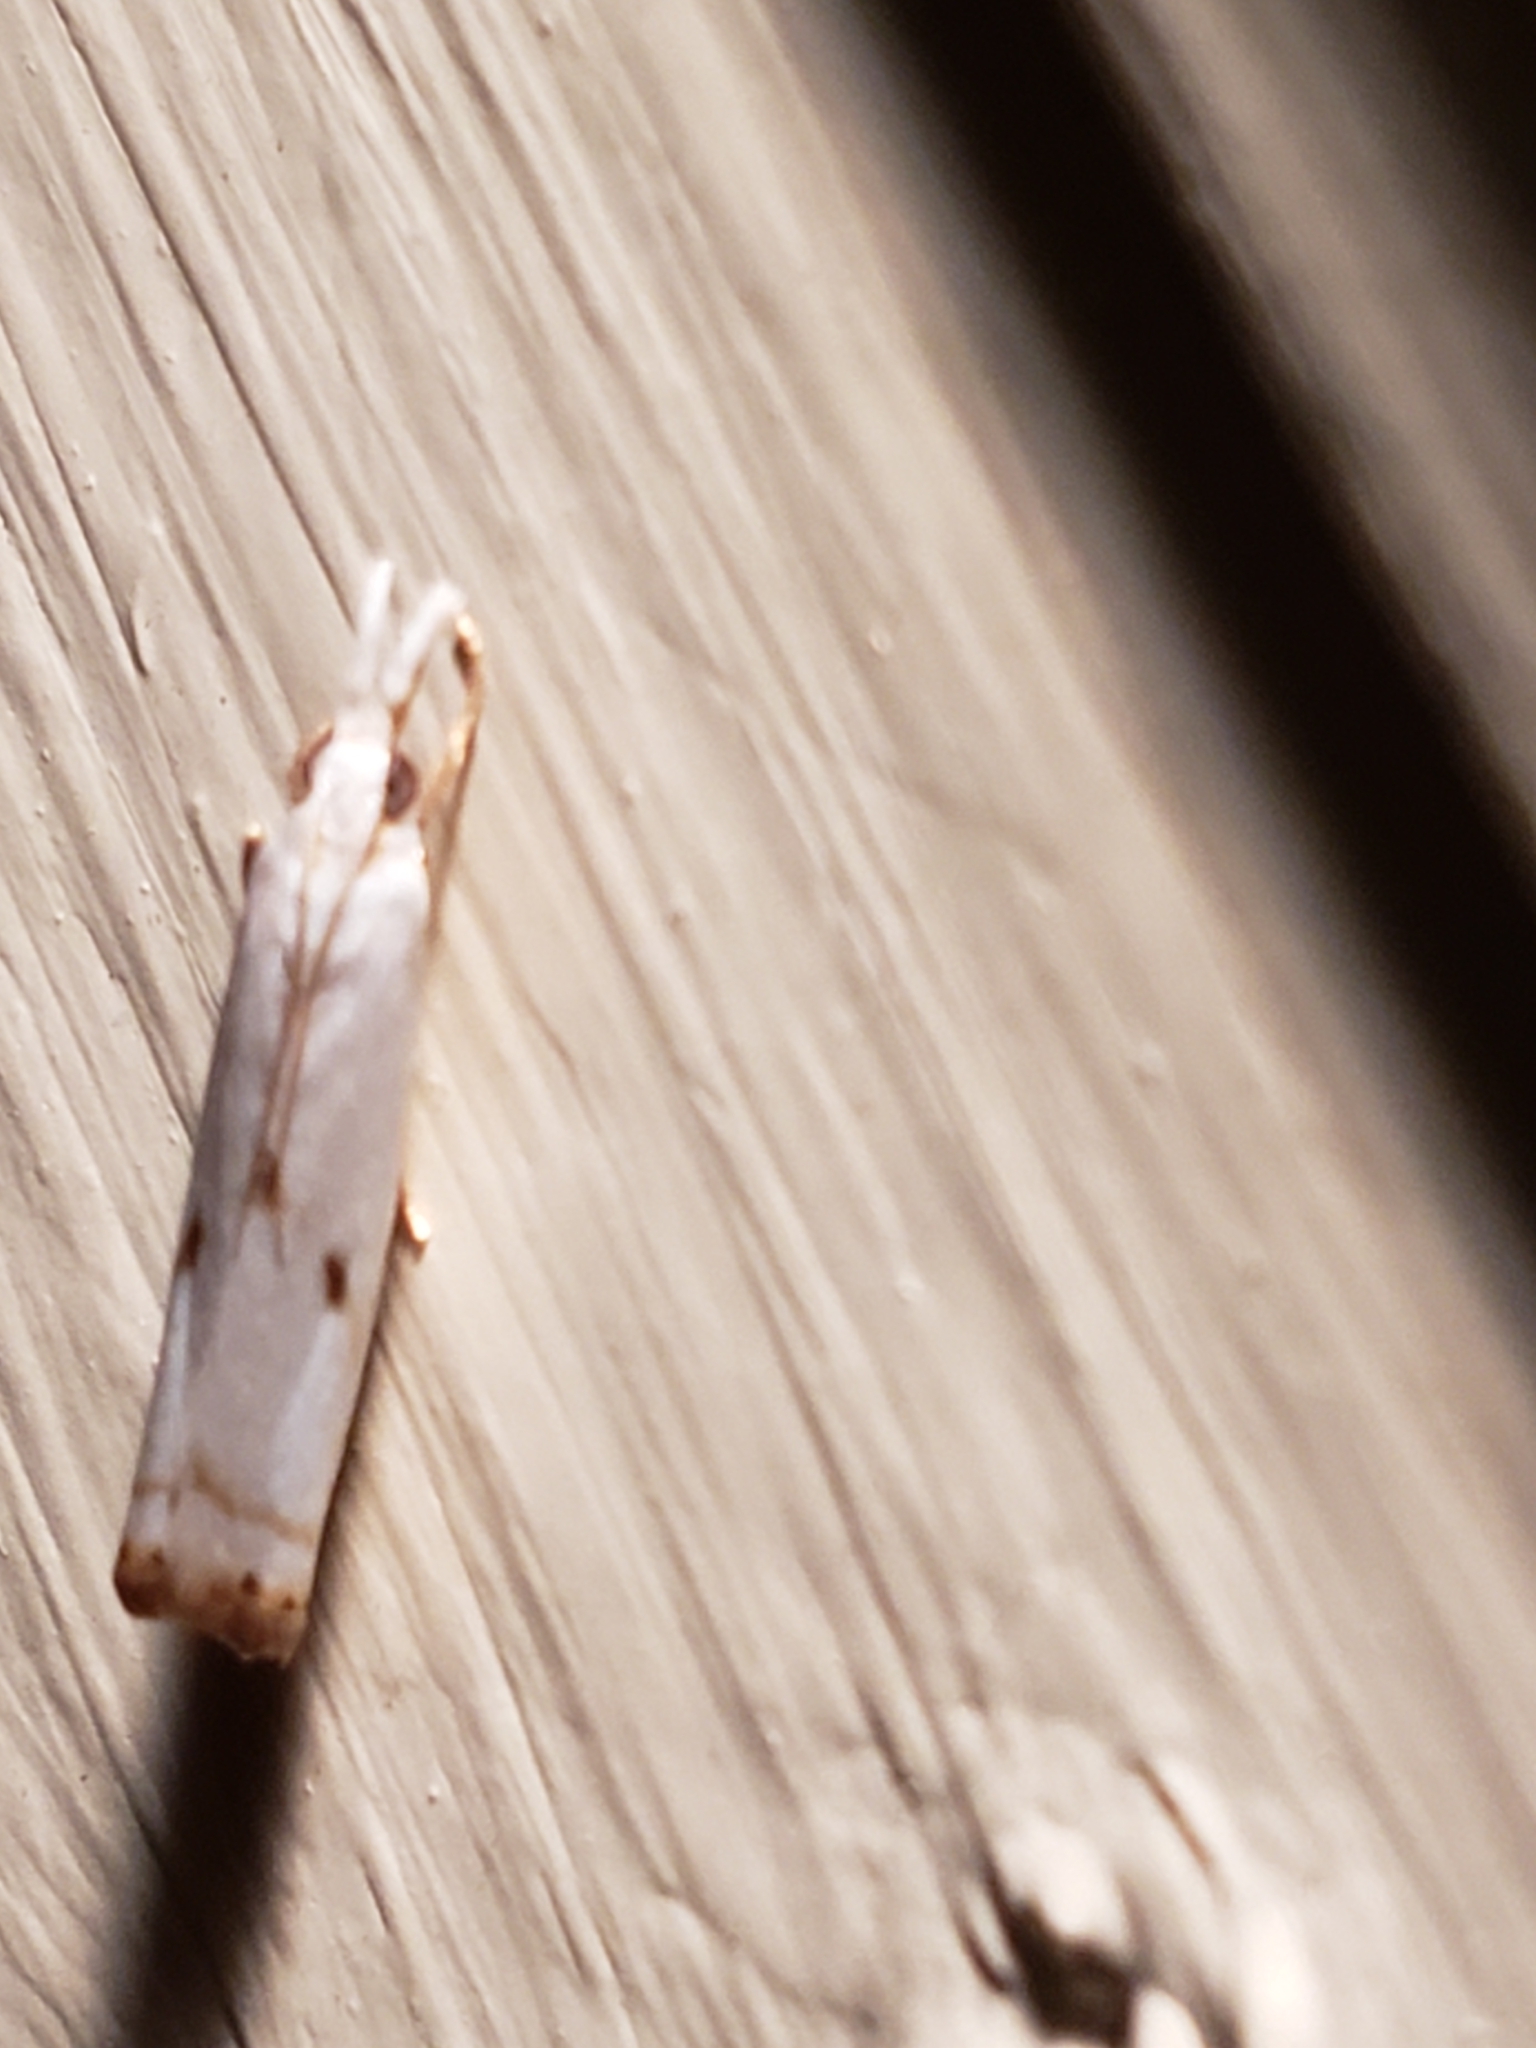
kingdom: Animalia
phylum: Arthropoda
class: Insecta
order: Lepidoptera
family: Crambidae
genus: Microcrambus
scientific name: Microcrambus biguttellus
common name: Gold-stripe grass-veneer moth
